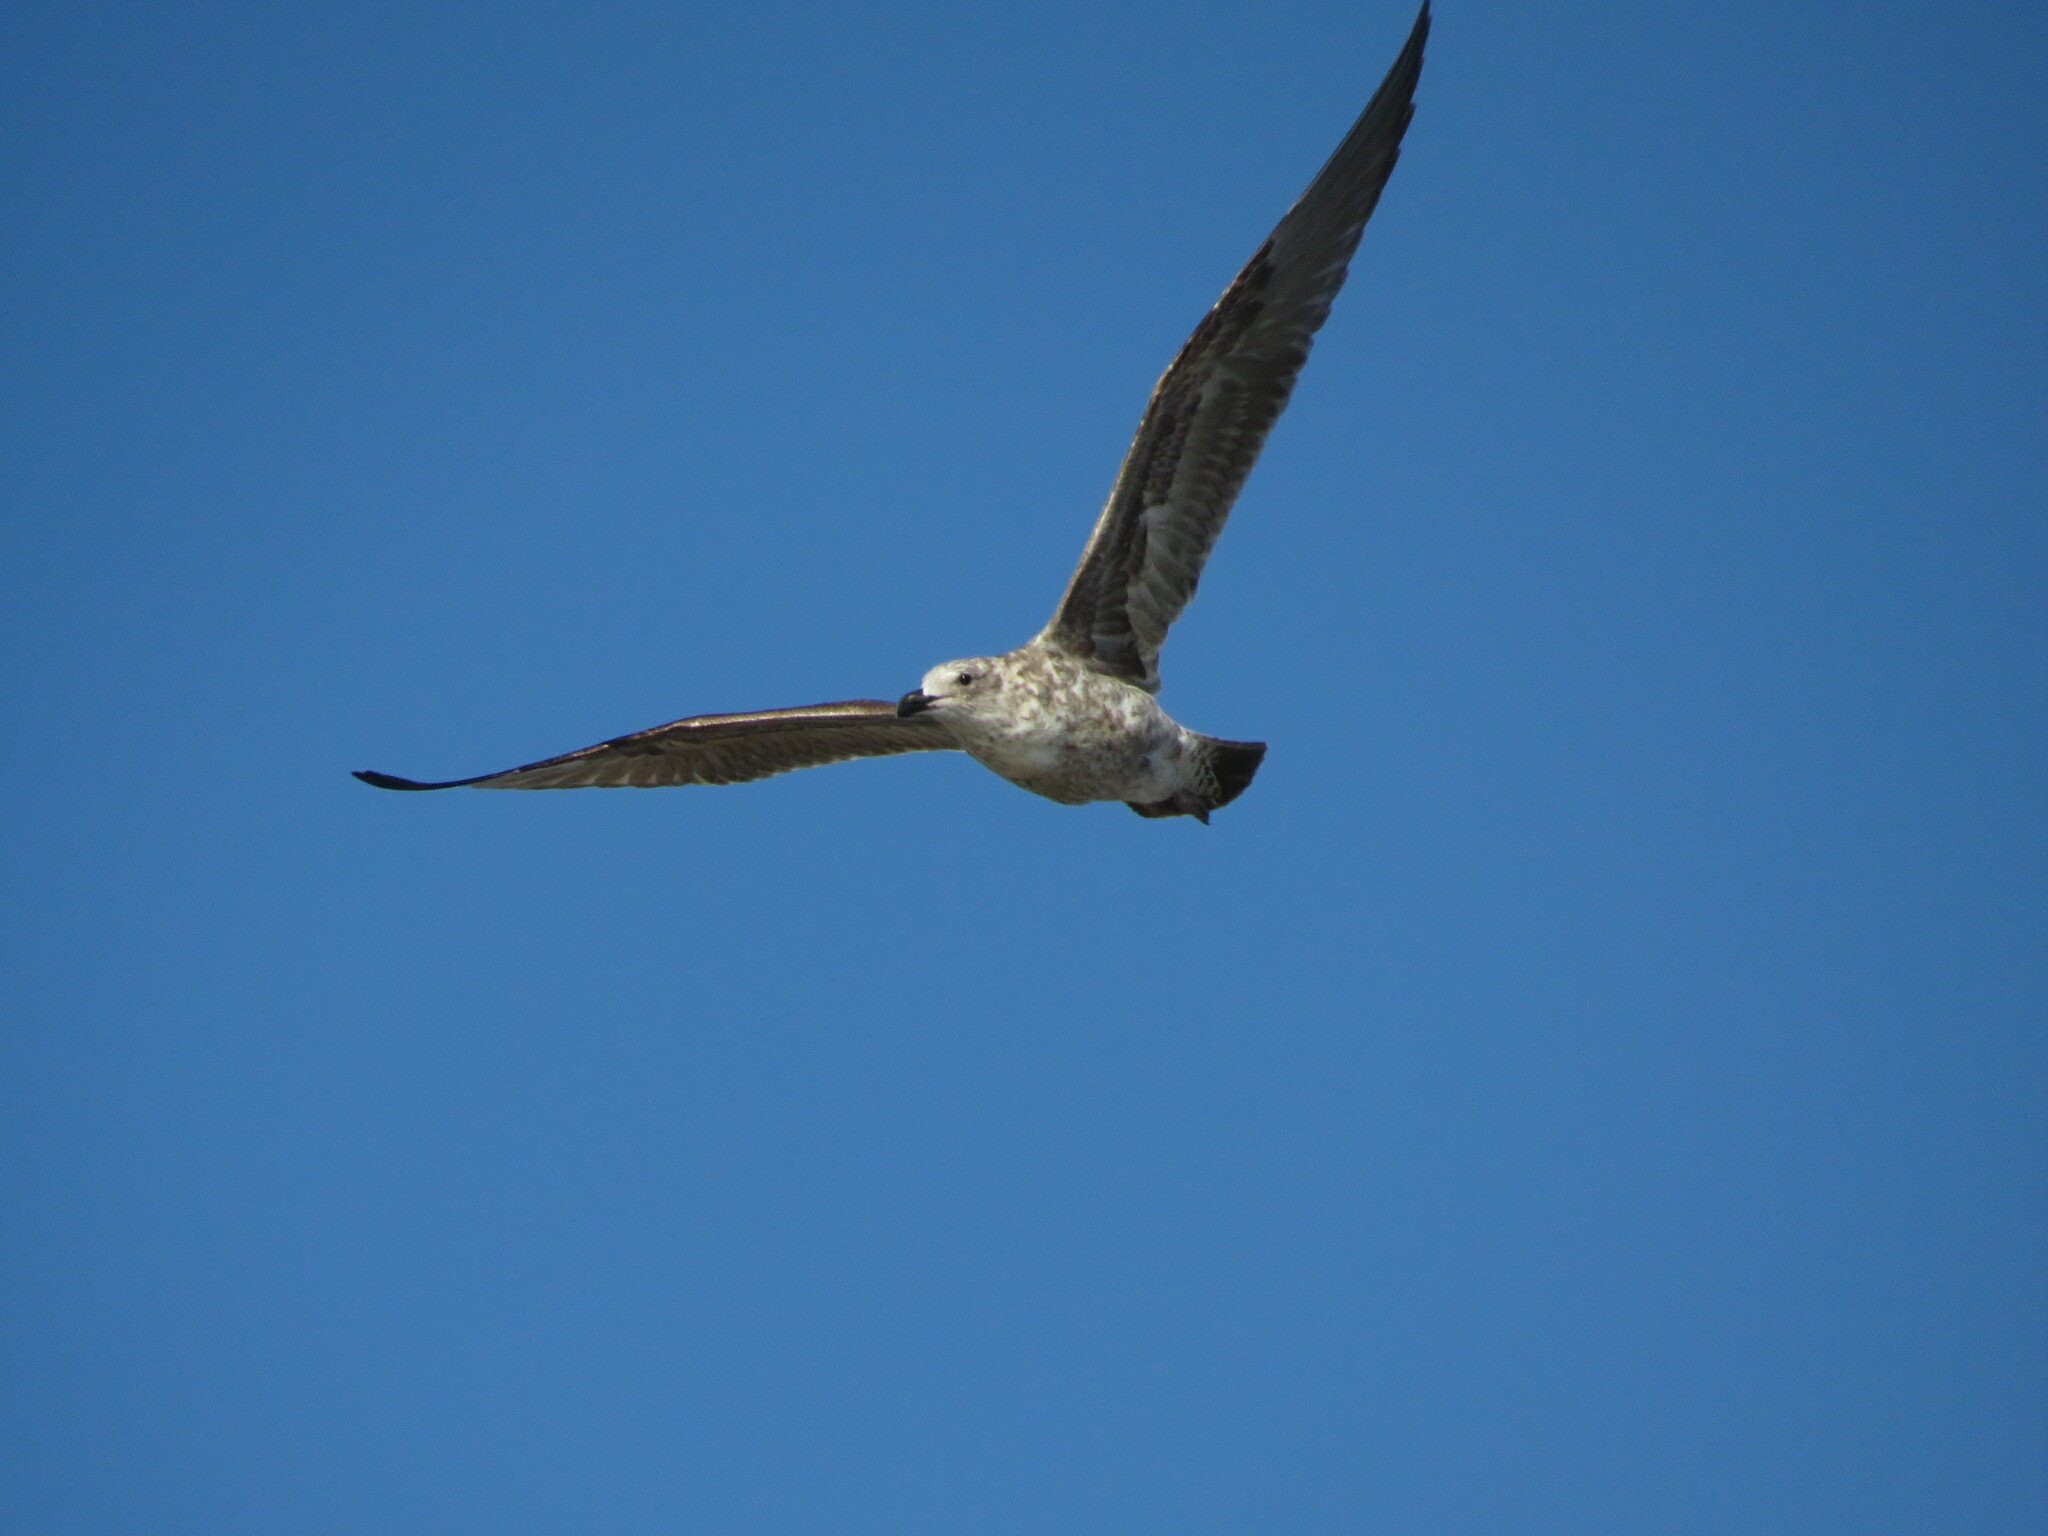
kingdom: Animalia
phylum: Chordata
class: Aves
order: Charadriiformes
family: Laridae
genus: Larus
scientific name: Larus dominicanus
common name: Kelp gull
